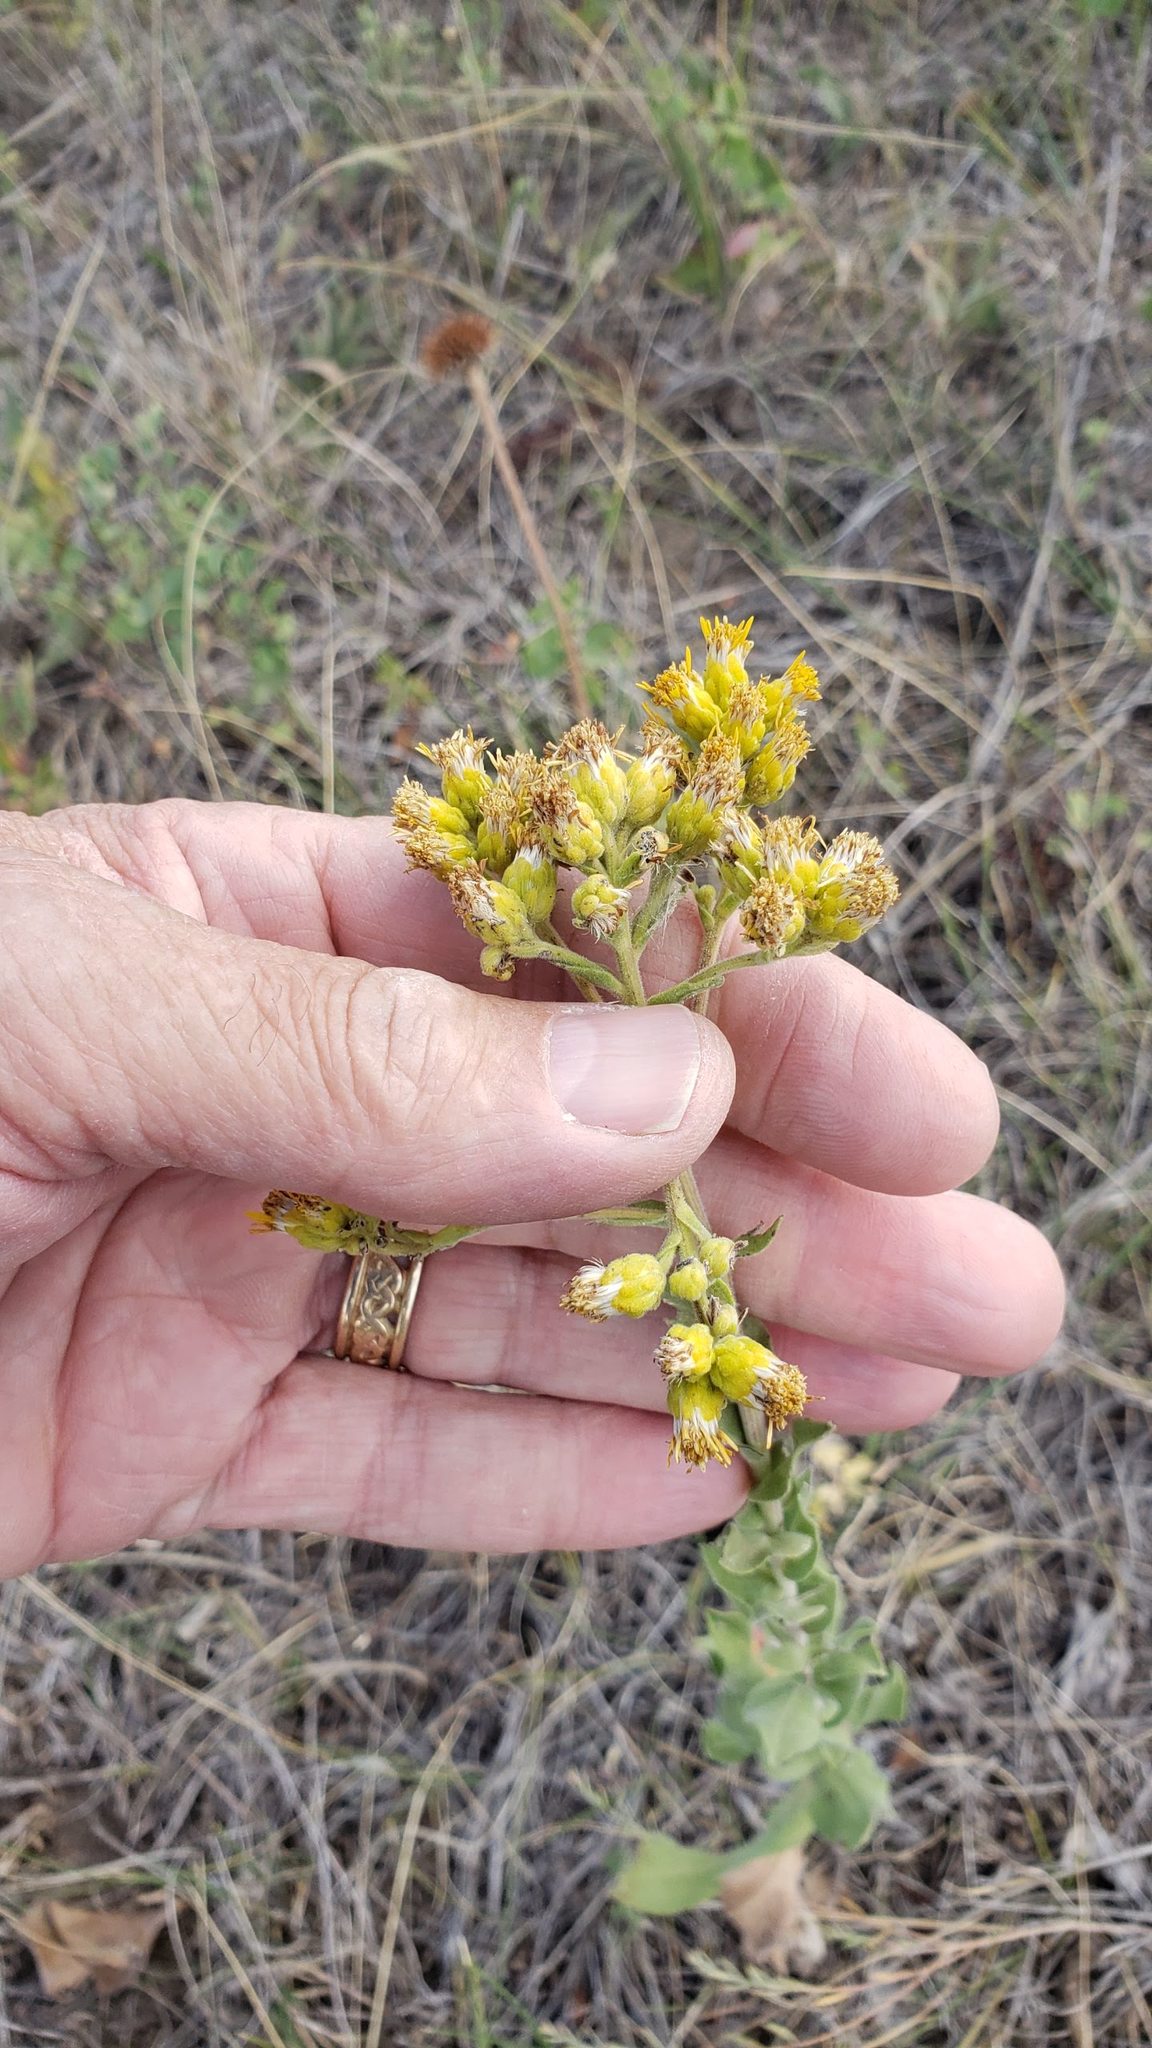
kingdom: Plantae
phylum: Tracheophyta
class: Magnoliopsida
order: Asterales
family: Asteraceae
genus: Solidago
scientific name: Solidago rigida
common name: Rigid goldenrod
